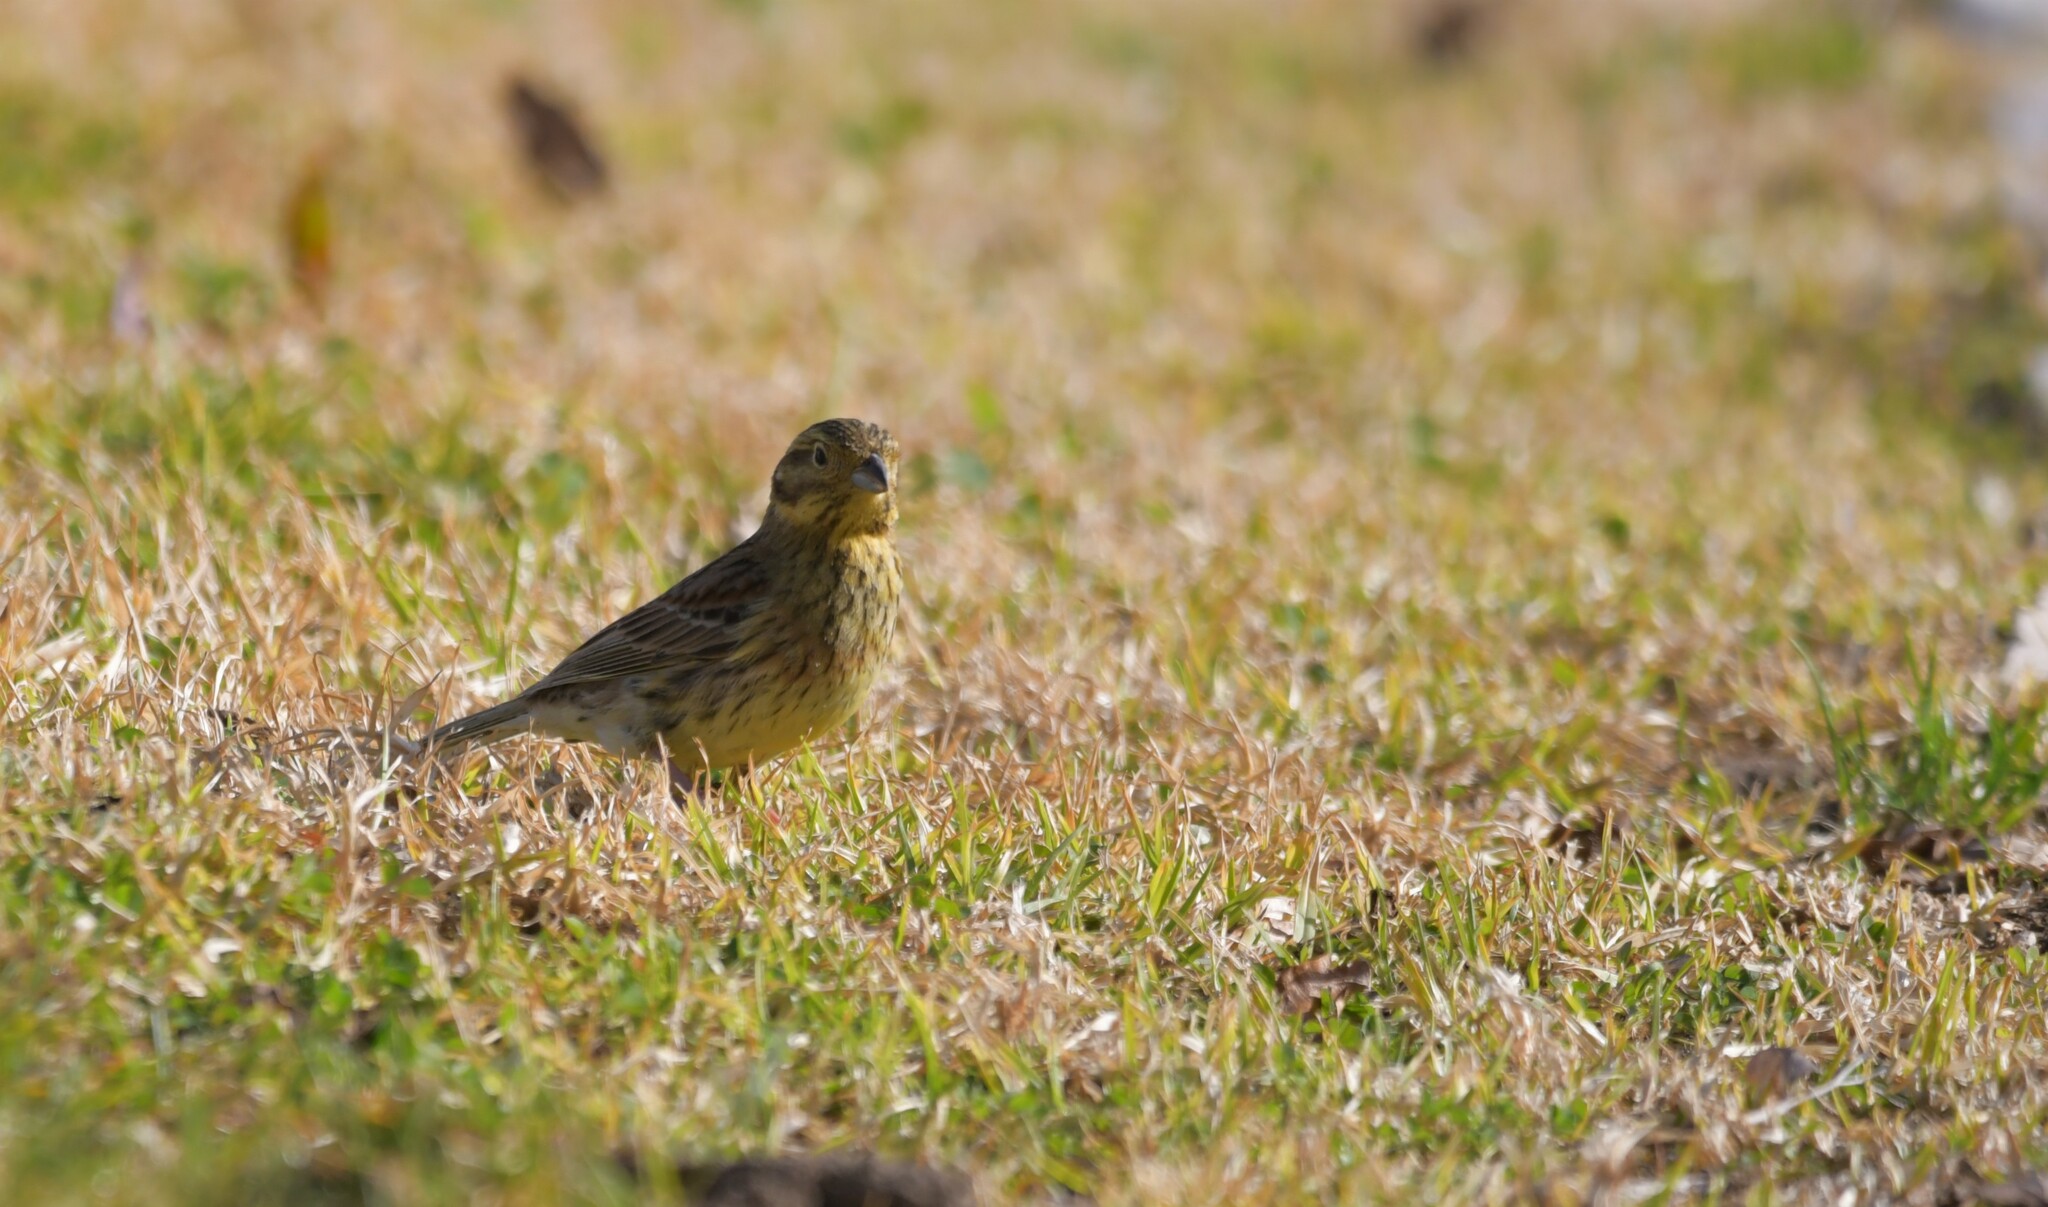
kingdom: Animalia
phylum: Chordata
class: Aves
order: Passeriformes
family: Emberizidae
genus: Emberiza
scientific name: Emberiza cirlus
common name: Cirl bunting
